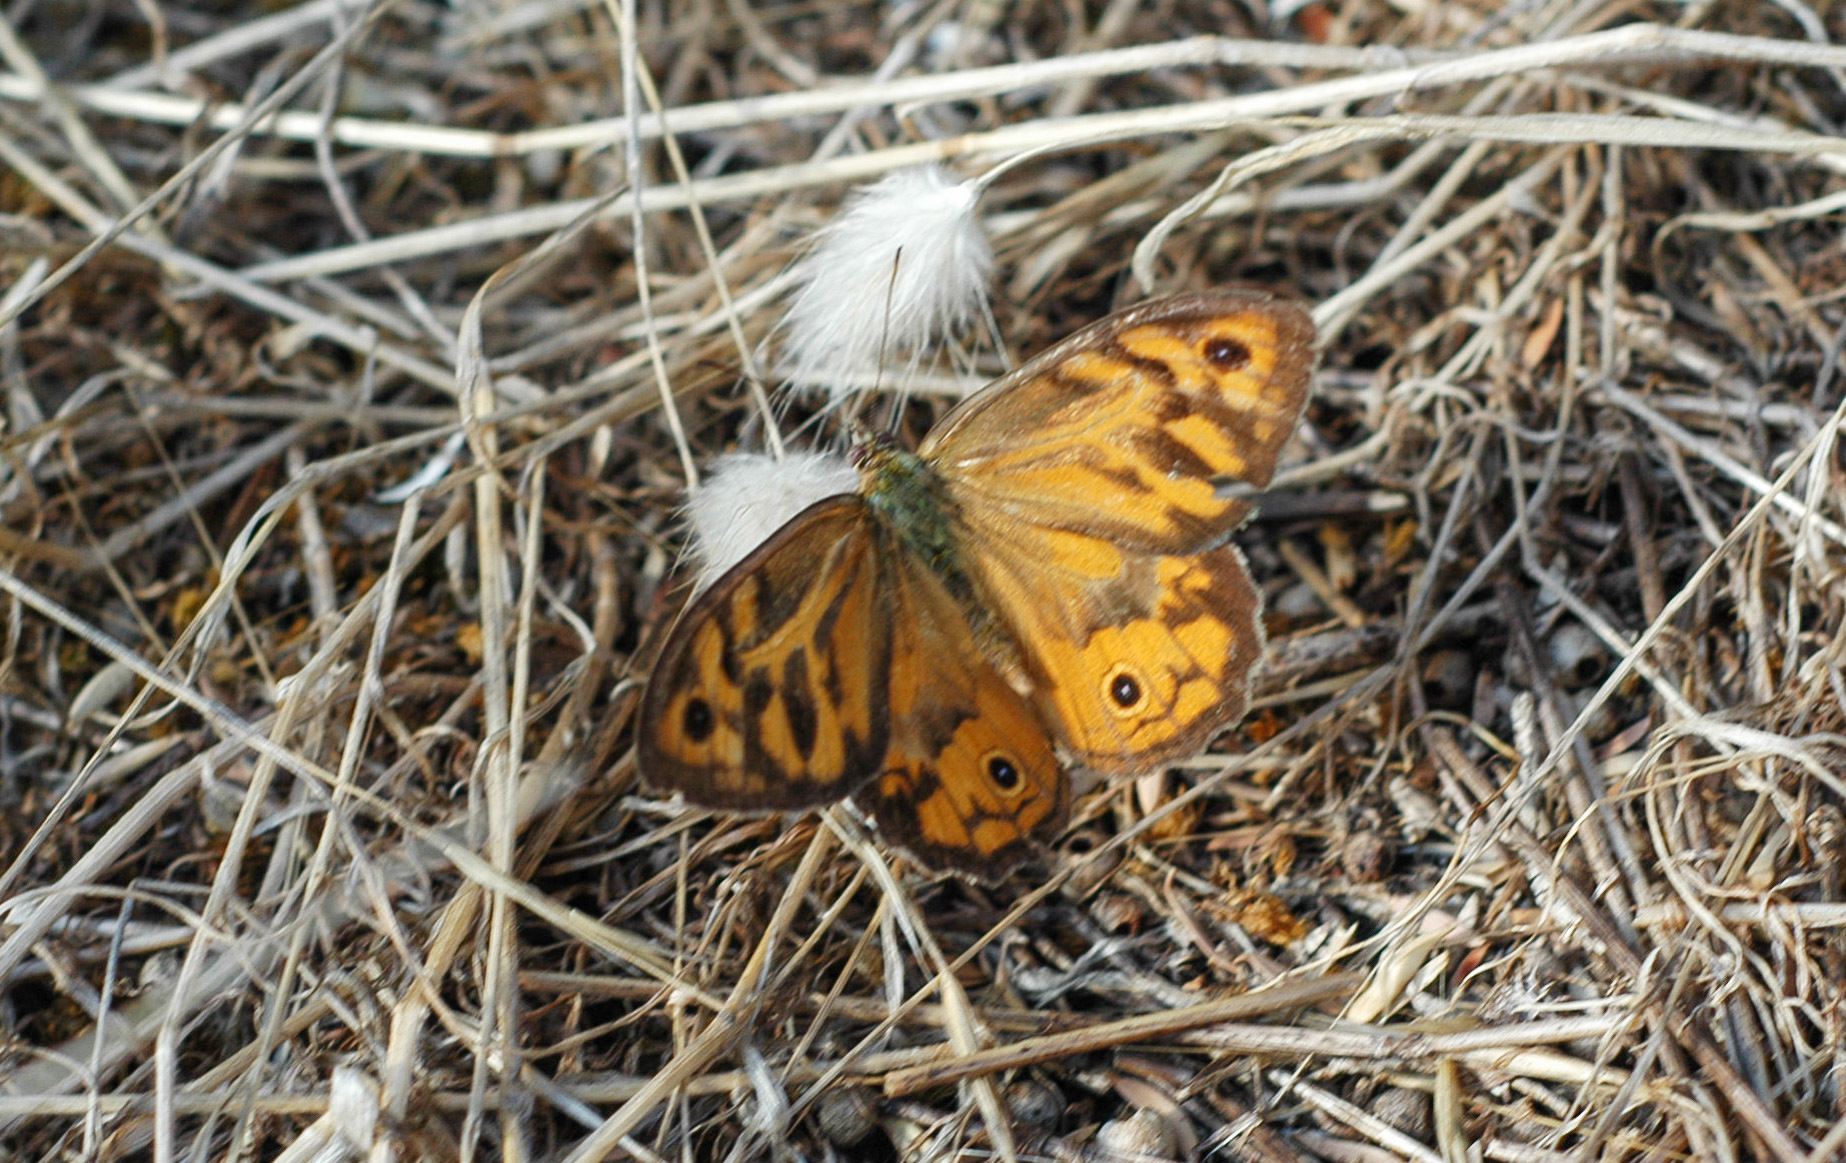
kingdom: Animalia
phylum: Arthropoda
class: Insecta
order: Lepidoptera
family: Nymphalidae
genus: Heteronympha
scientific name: Heteronympha merope
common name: Common brown
